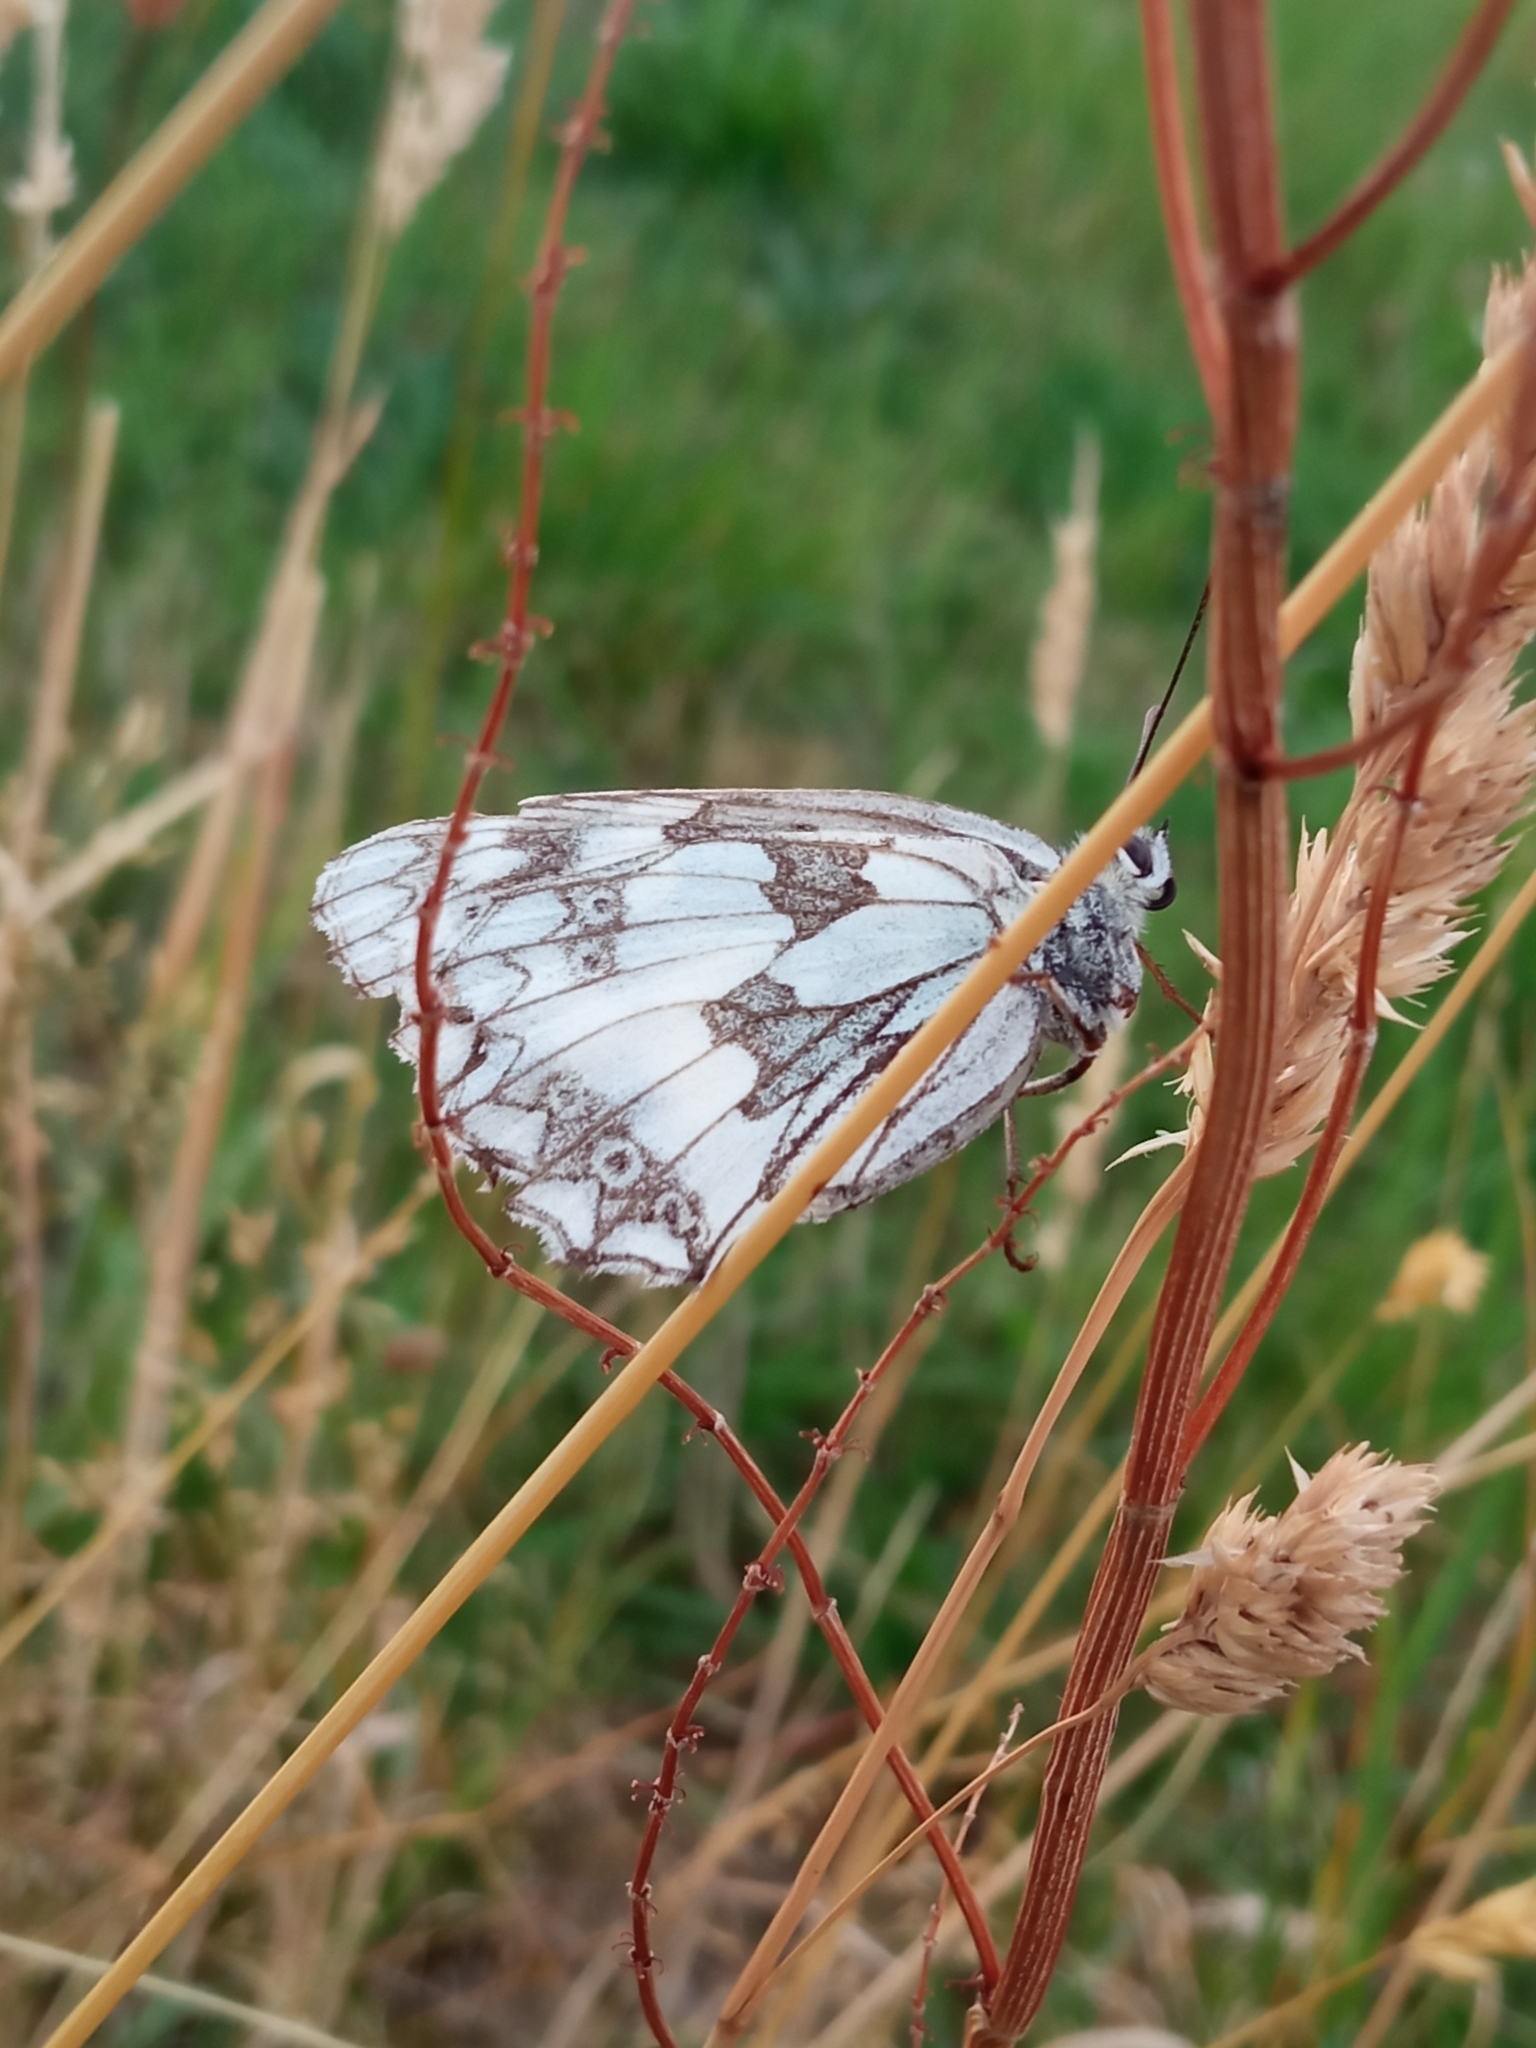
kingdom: Animalia
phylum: Arthropoda
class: Insecta
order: Lepidoptera
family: Nymphalidae
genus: Melanargia
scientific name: Melanargia galathea
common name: Marbled white
